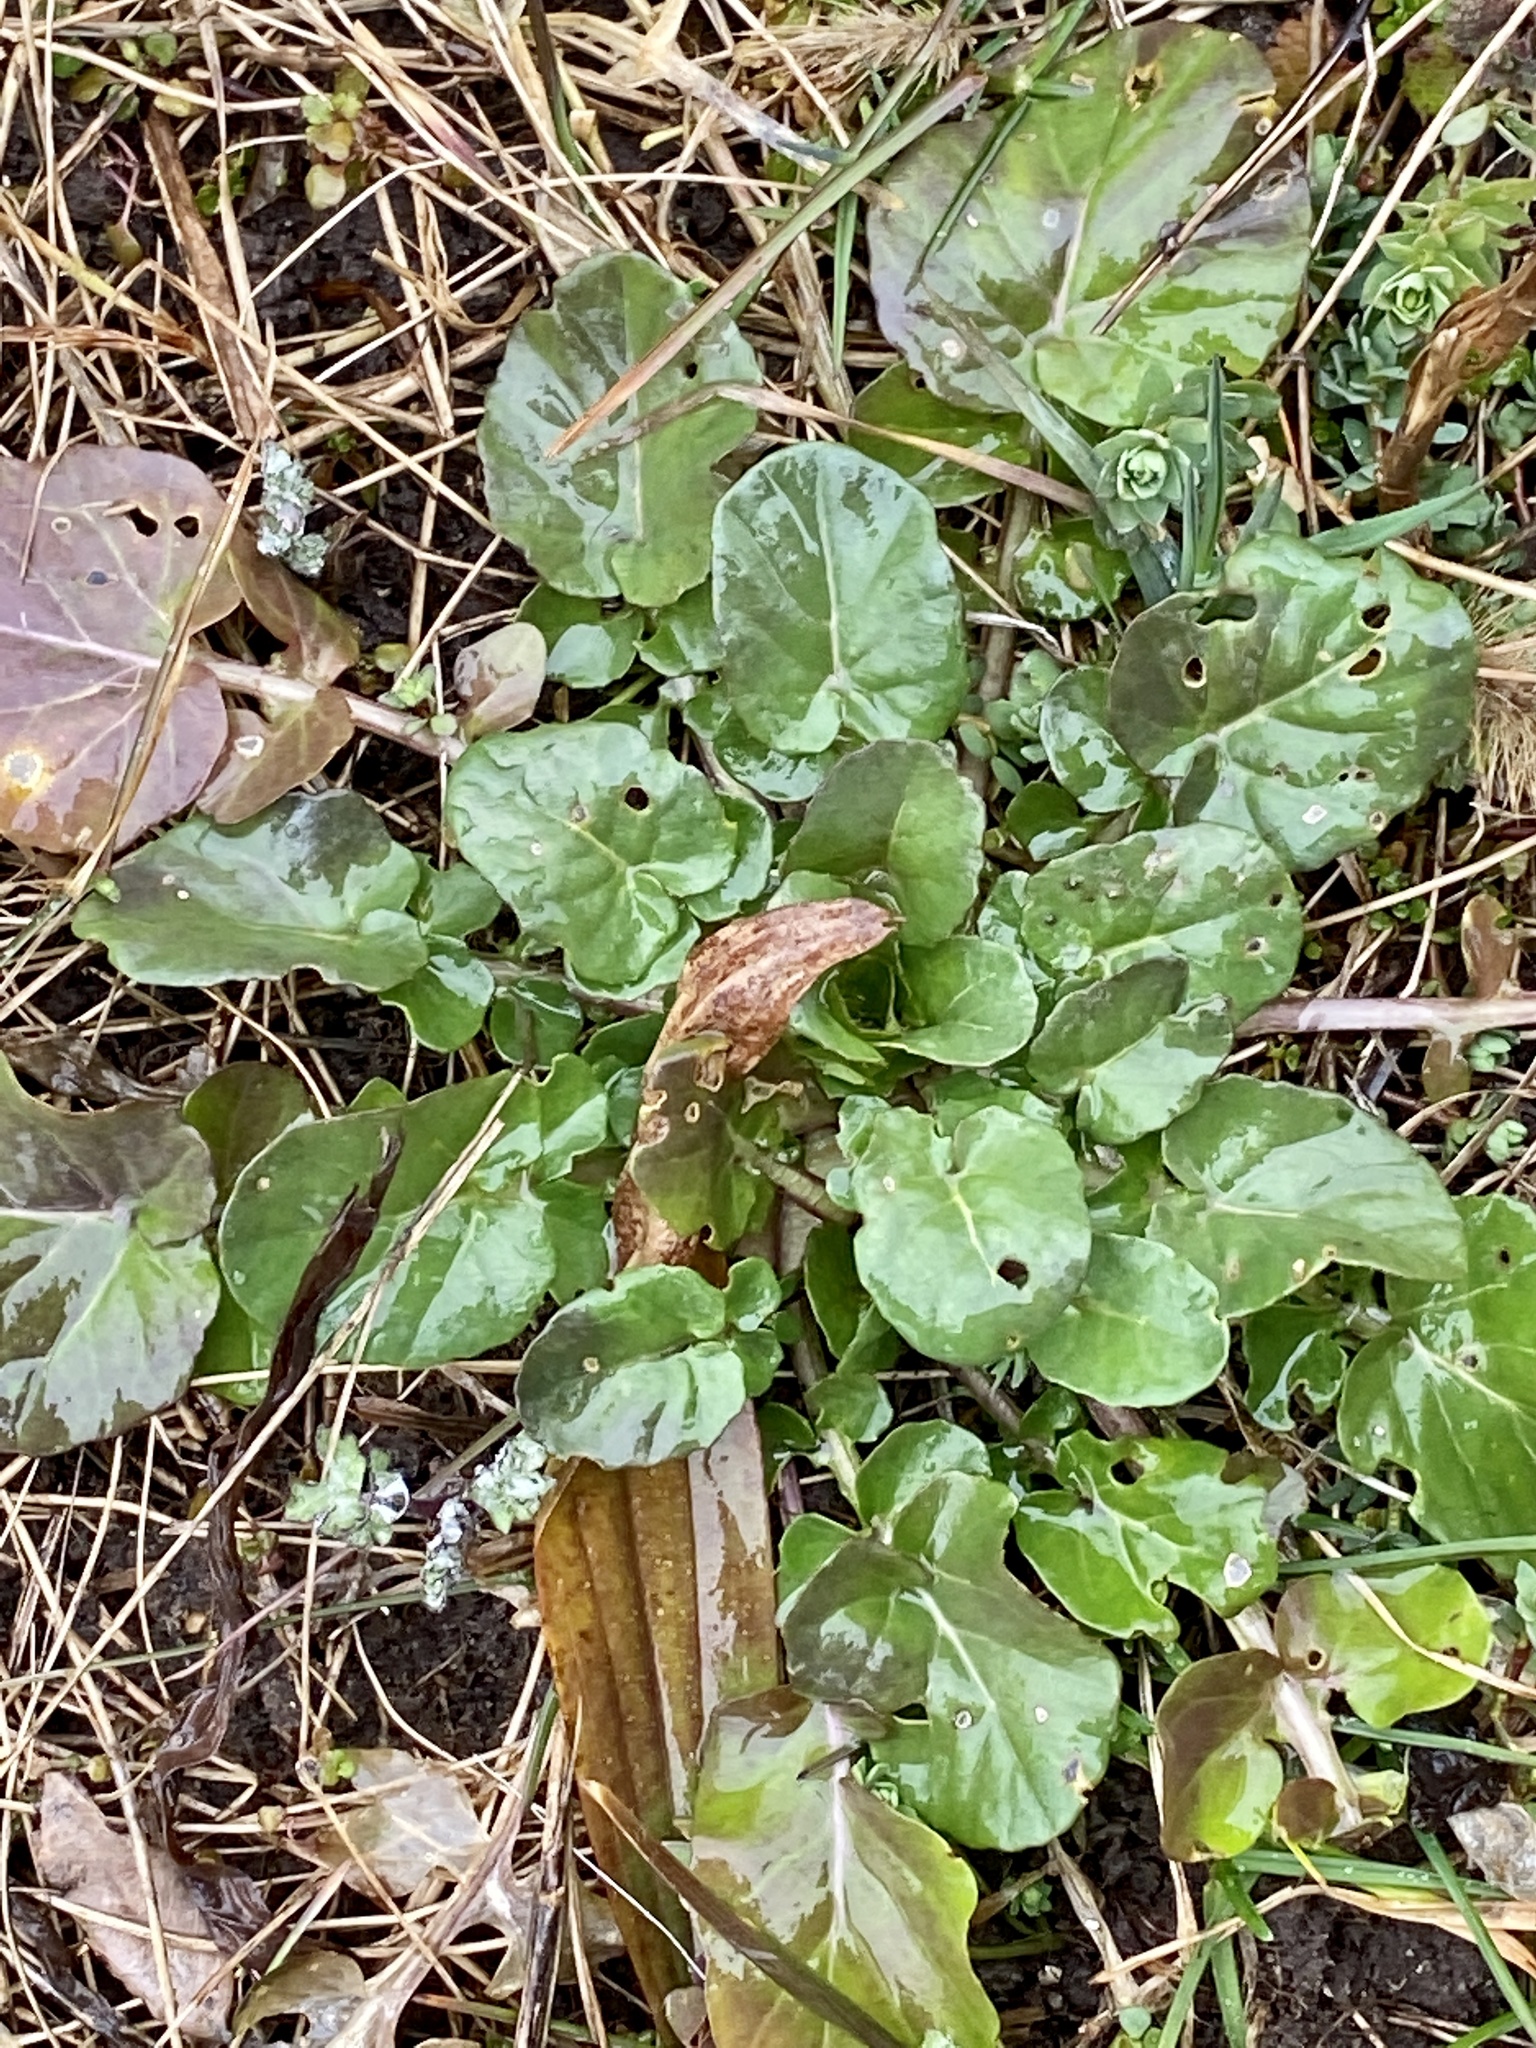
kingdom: Plantae
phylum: Tracheophyta
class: Magnoliopsida
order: Brassicales
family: Brassicaceae
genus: Barbarea
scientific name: Barbarea vulgaris
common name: Cressy-greens
